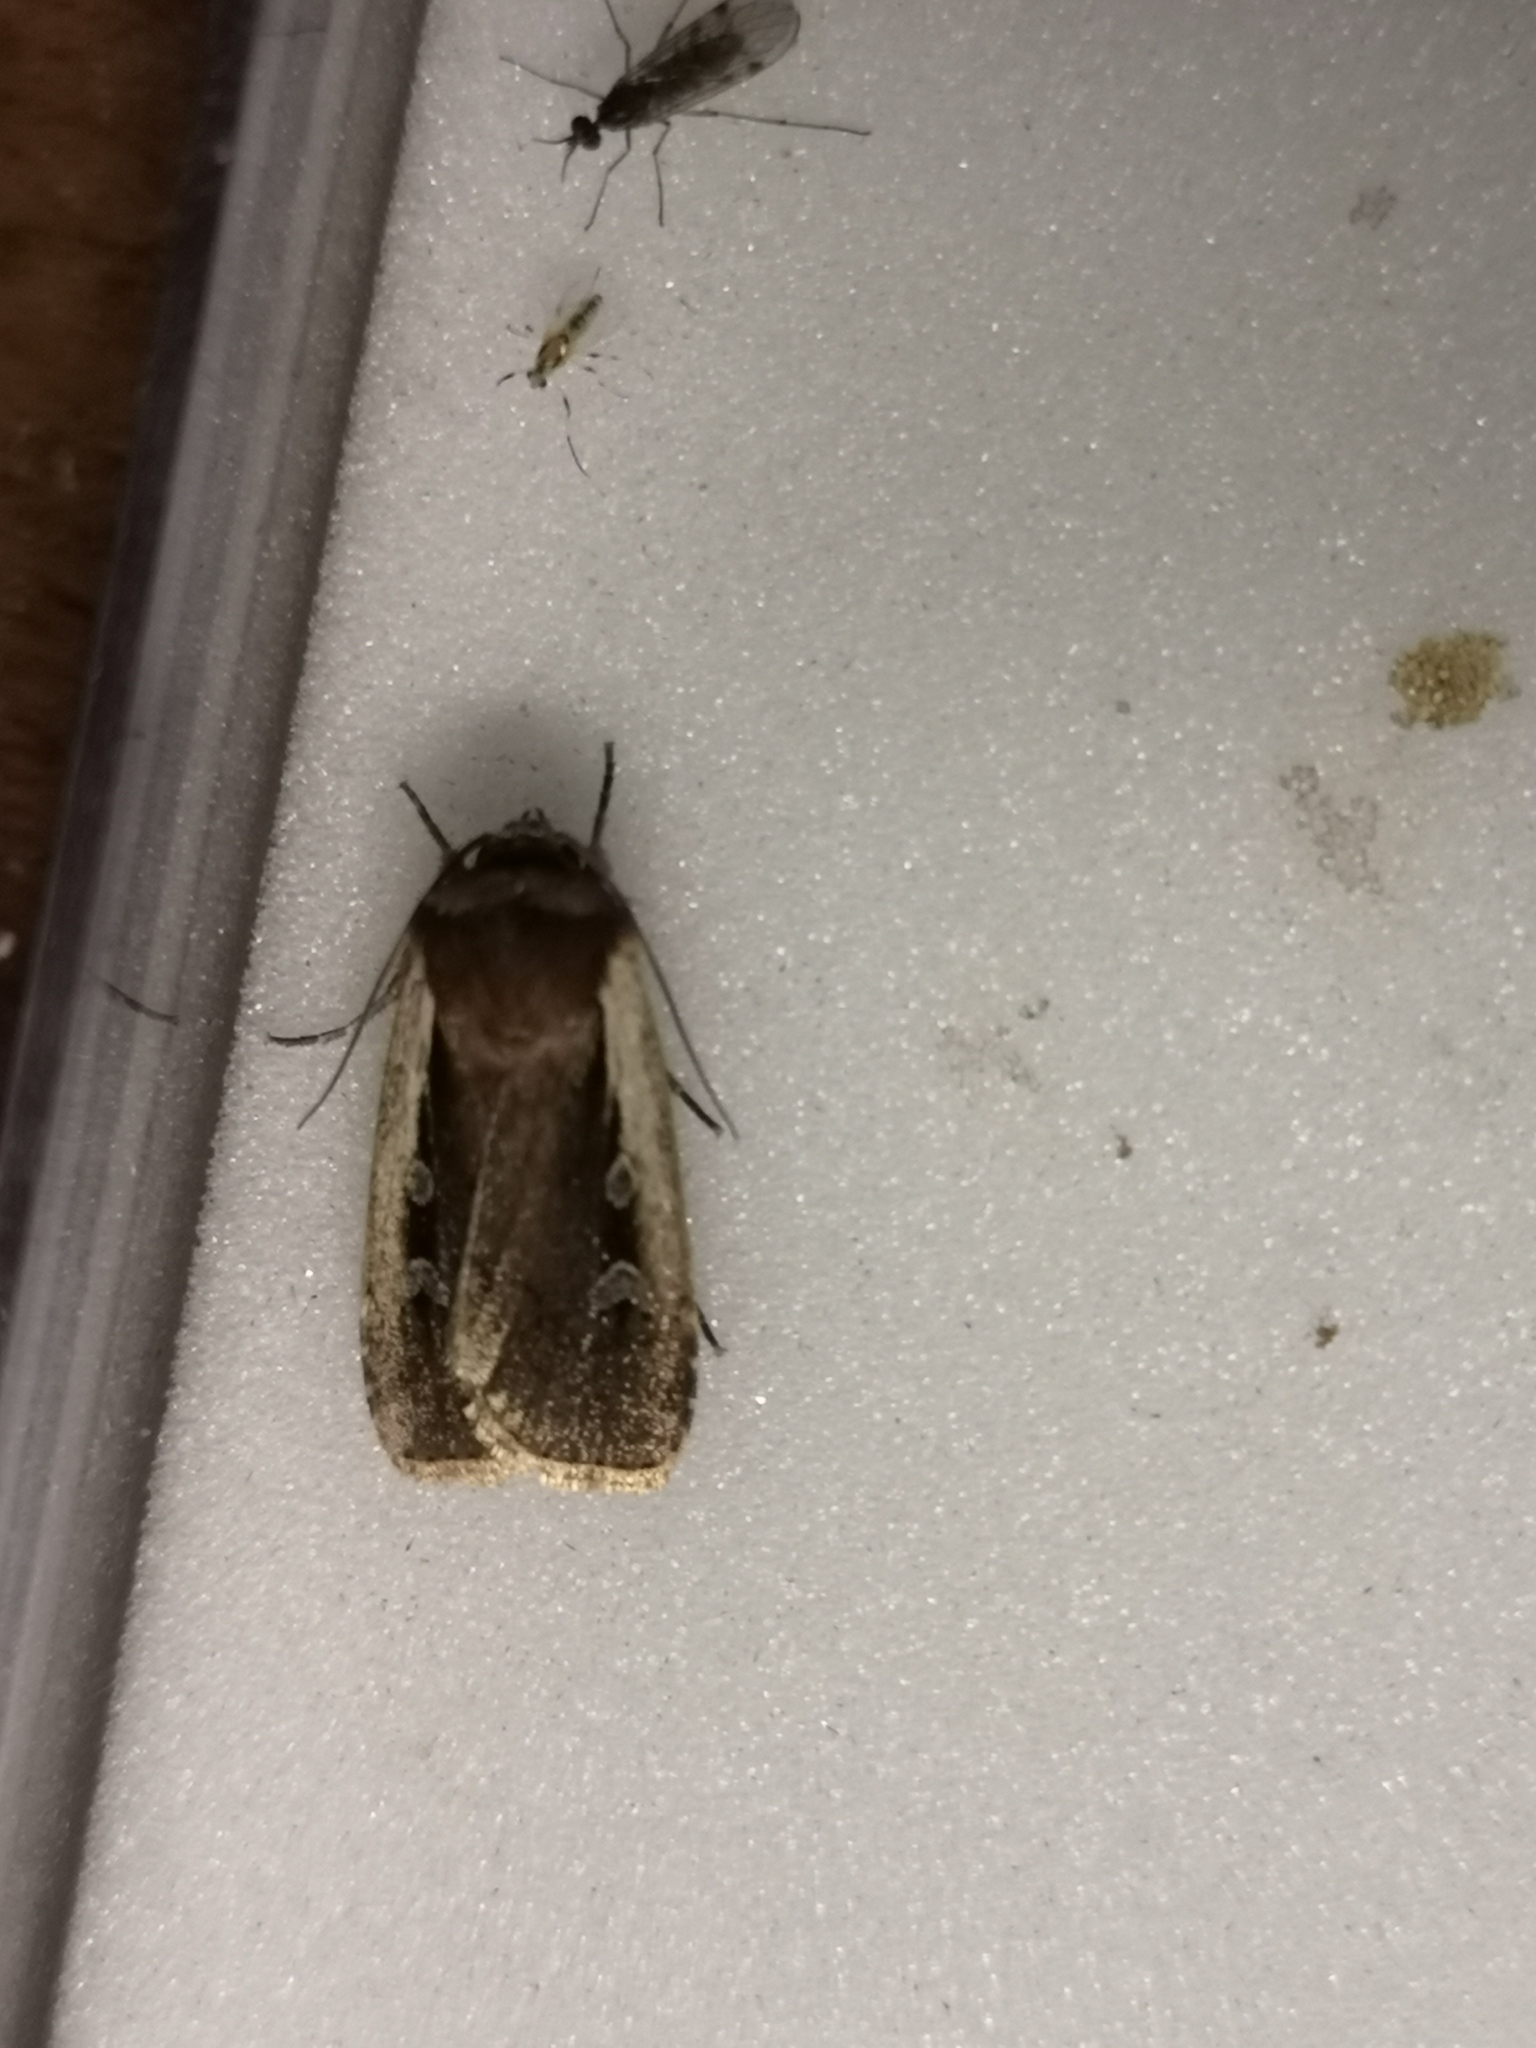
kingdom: Animalia
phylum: Arthropoda
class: Insecta
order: Lepidoptera
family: Noctuidae
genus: Ochropleura
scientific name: Ochropleura plecta
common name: Flame shoulder
